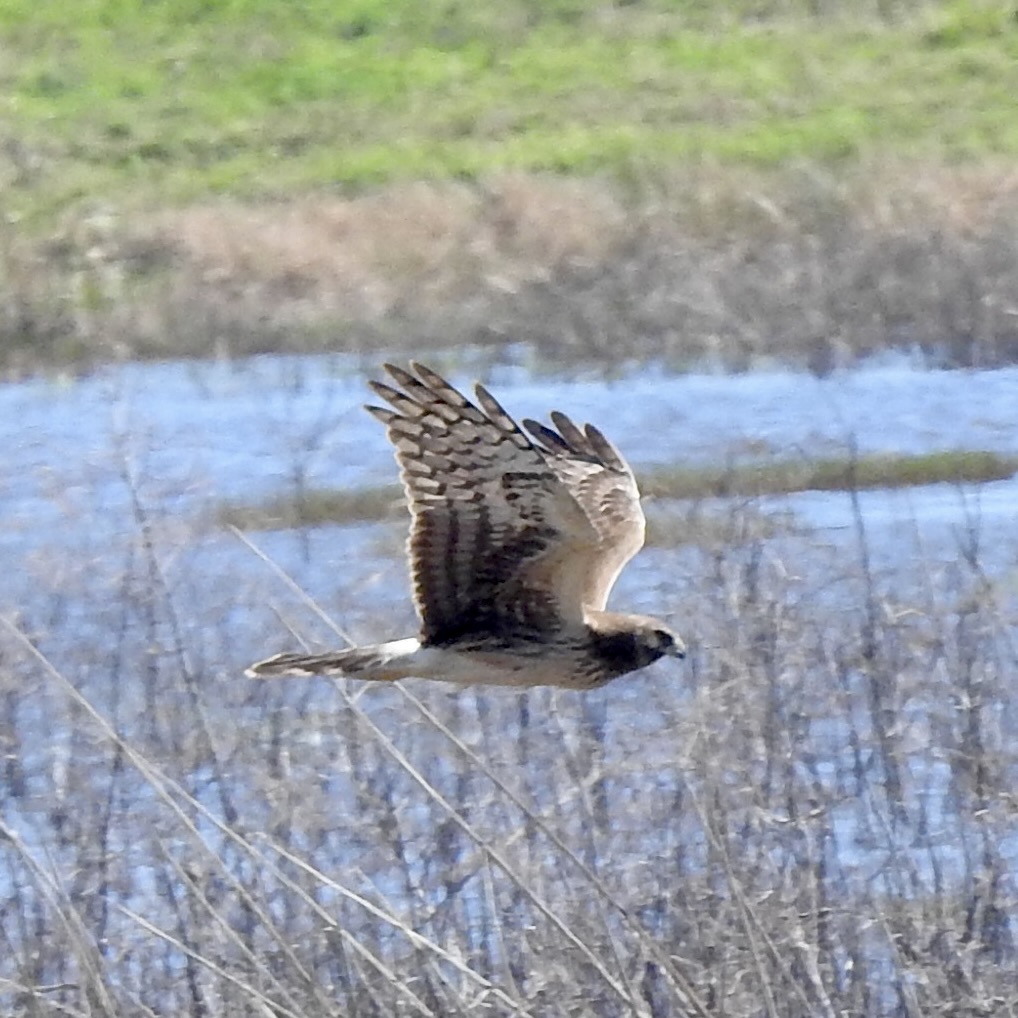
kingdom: Animalia
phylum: Chordata
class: Aves
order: Accipitriformes
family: Accipitridae
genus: Circus
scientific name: Circus cyaneus
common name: Hen harrier
